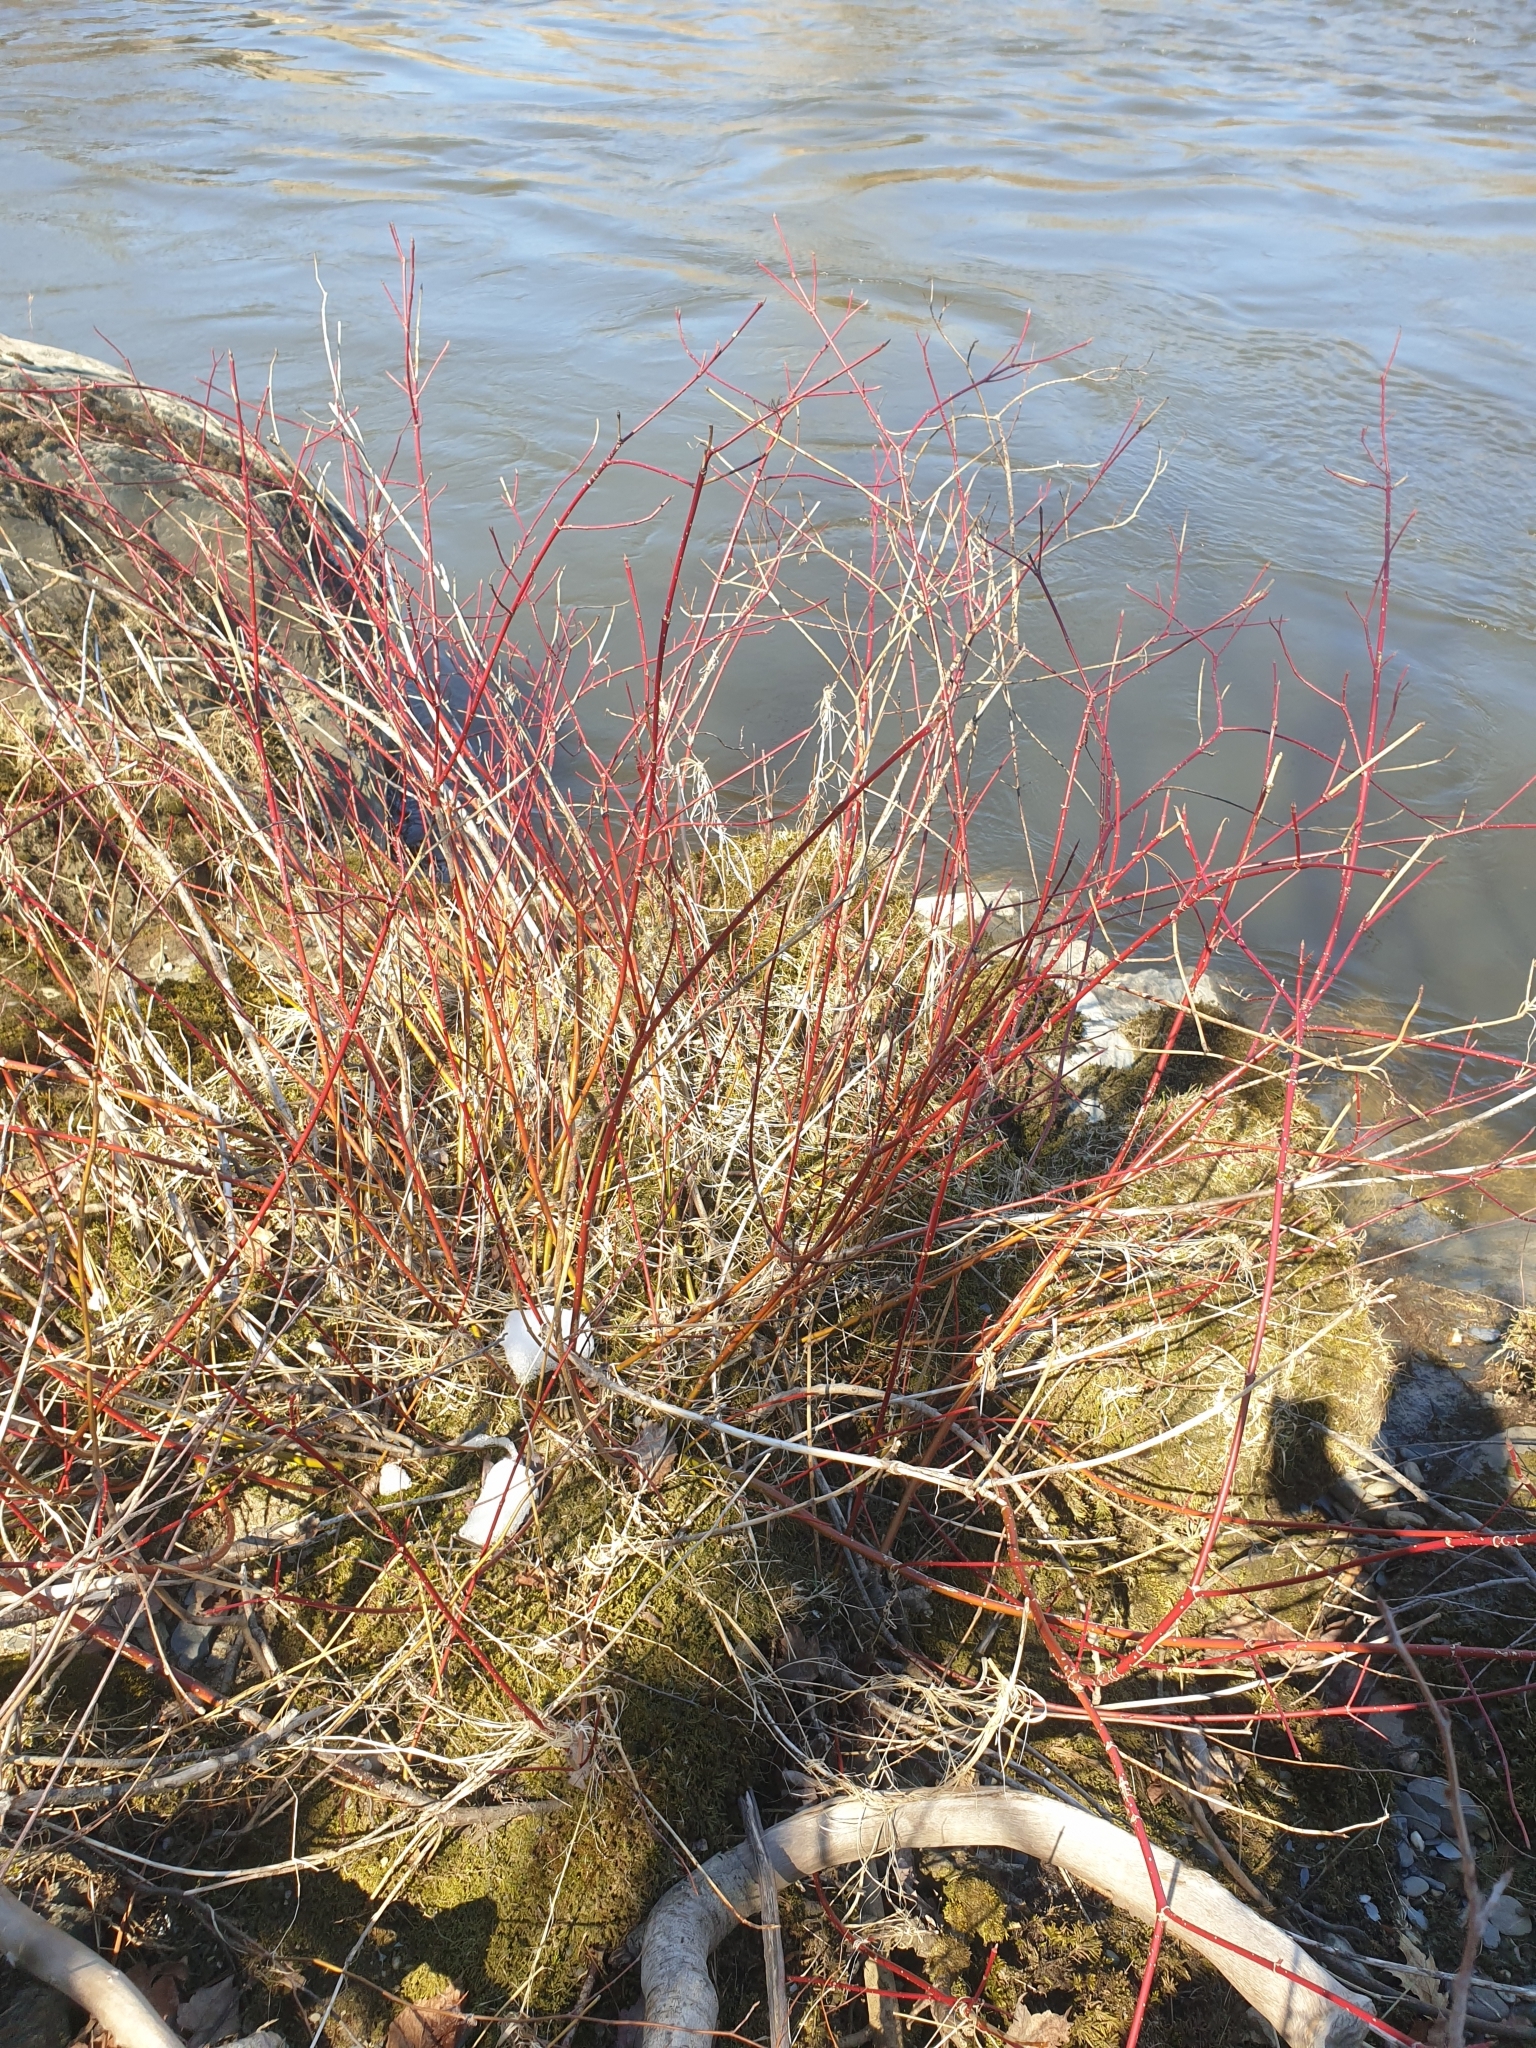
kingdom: Plantae
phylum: Tracheophyta
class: Magnoliopsida
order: Cornales
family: Cornaceae
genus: Cornus
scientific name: Cornus sericea
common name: Red-osier dogwood
